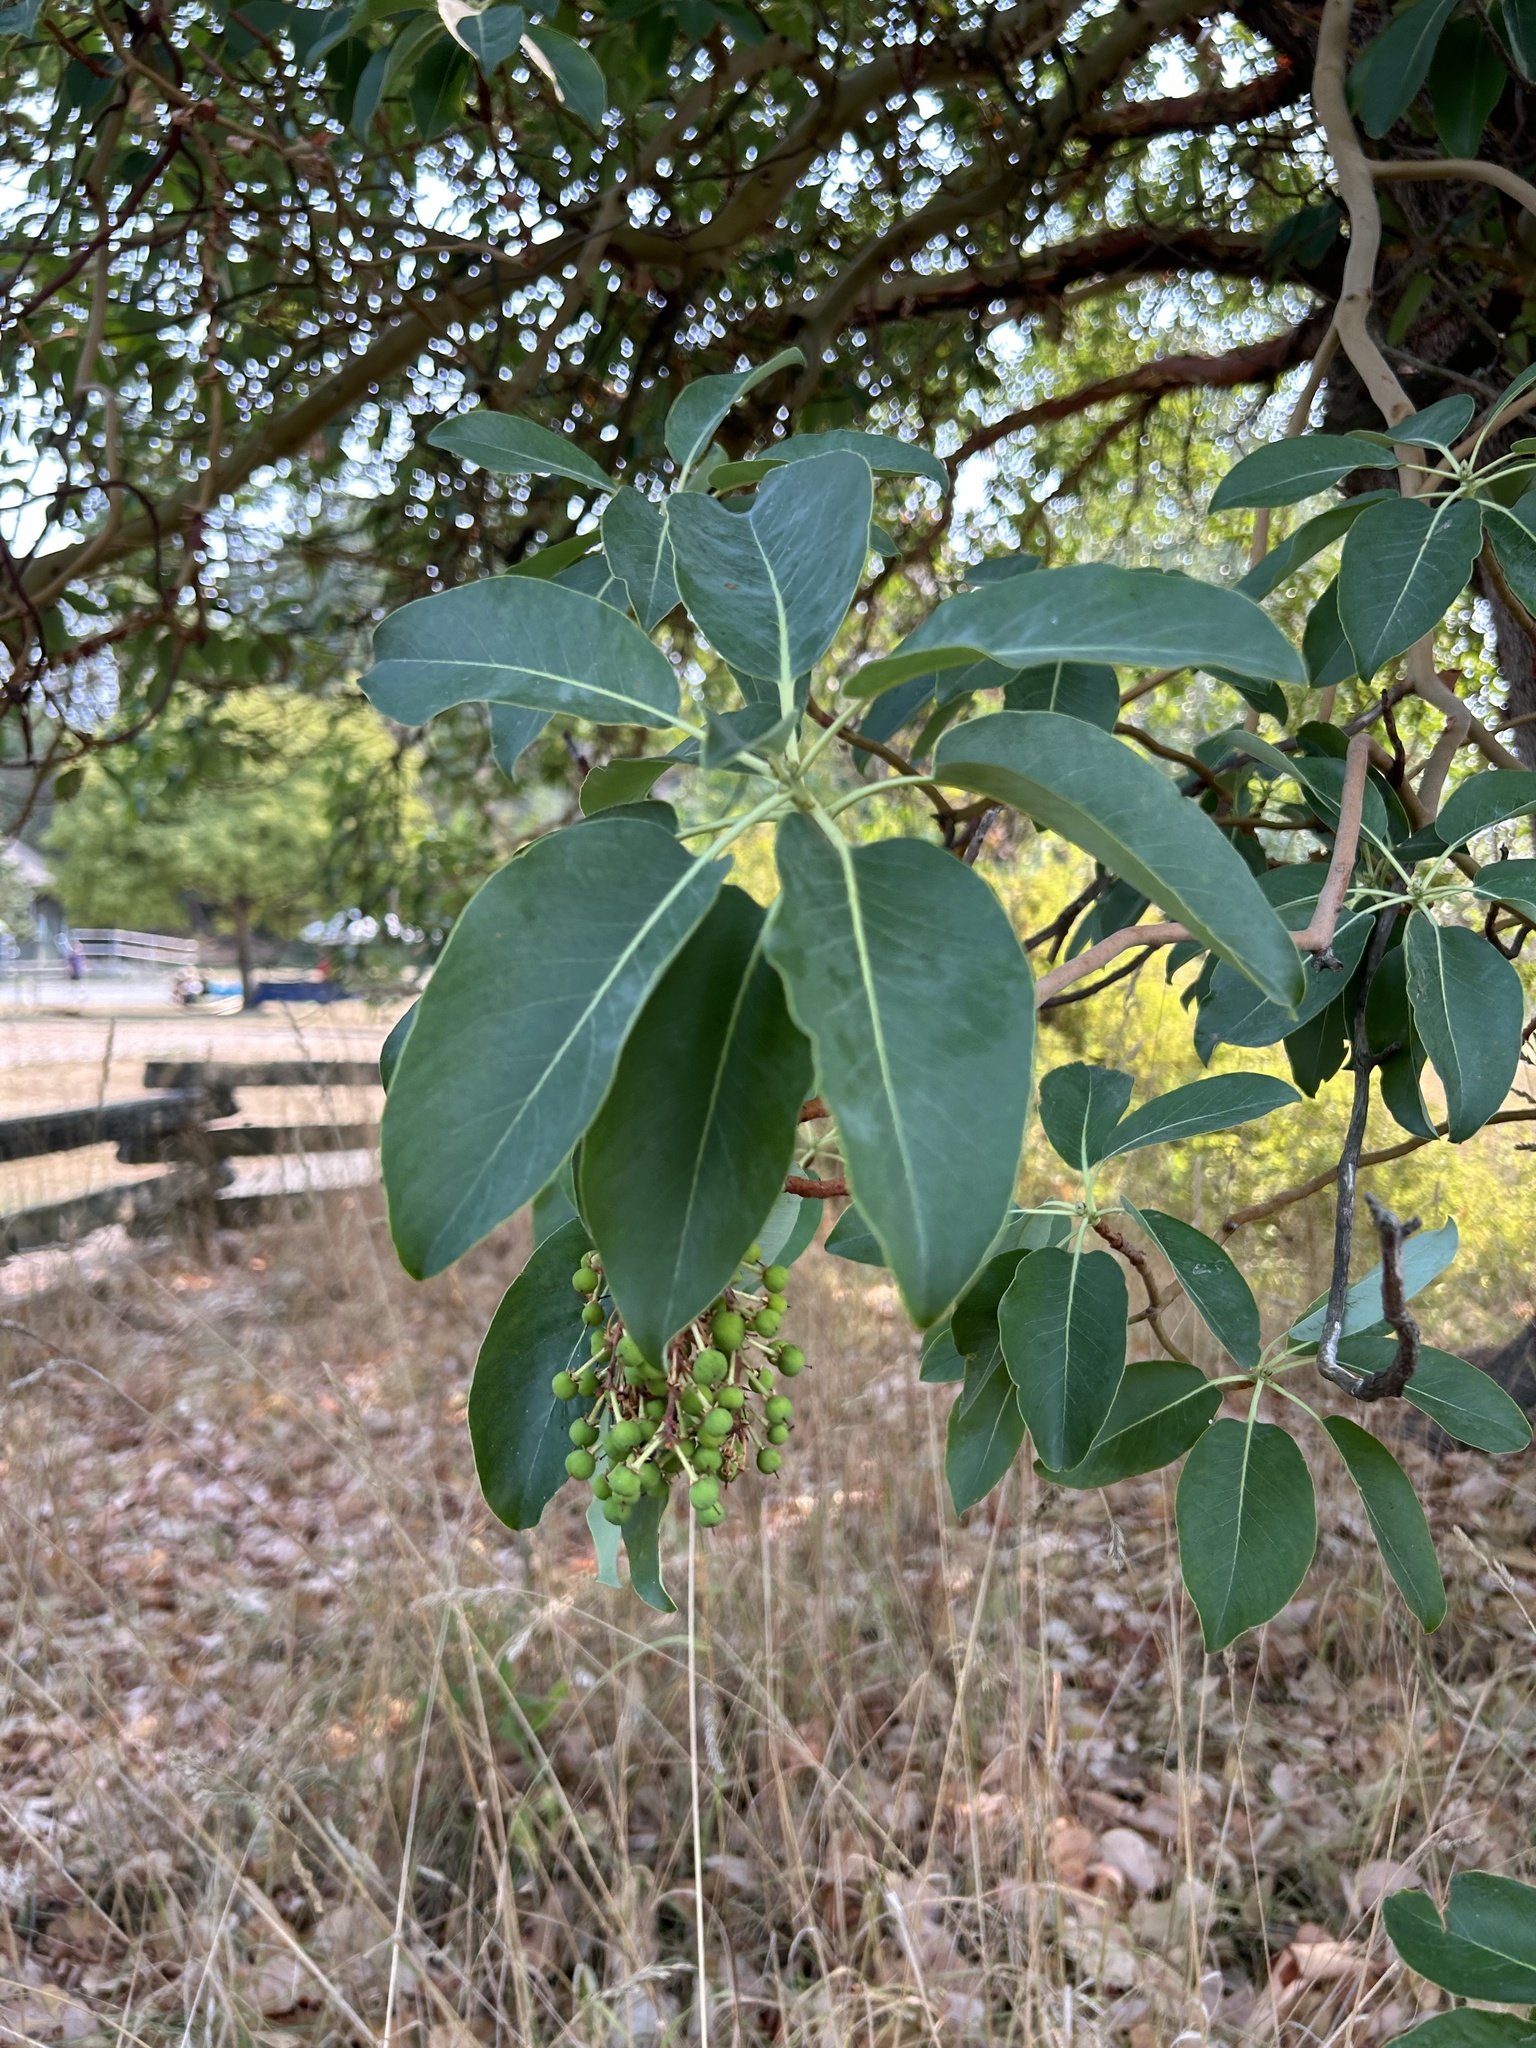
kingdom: Plantae
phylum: Tracheophyta
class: Magnoliopsida
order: Ericales
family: Ericaceae
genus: Arbutus
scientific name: Arbutus menziesii
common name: Pacific madrone
